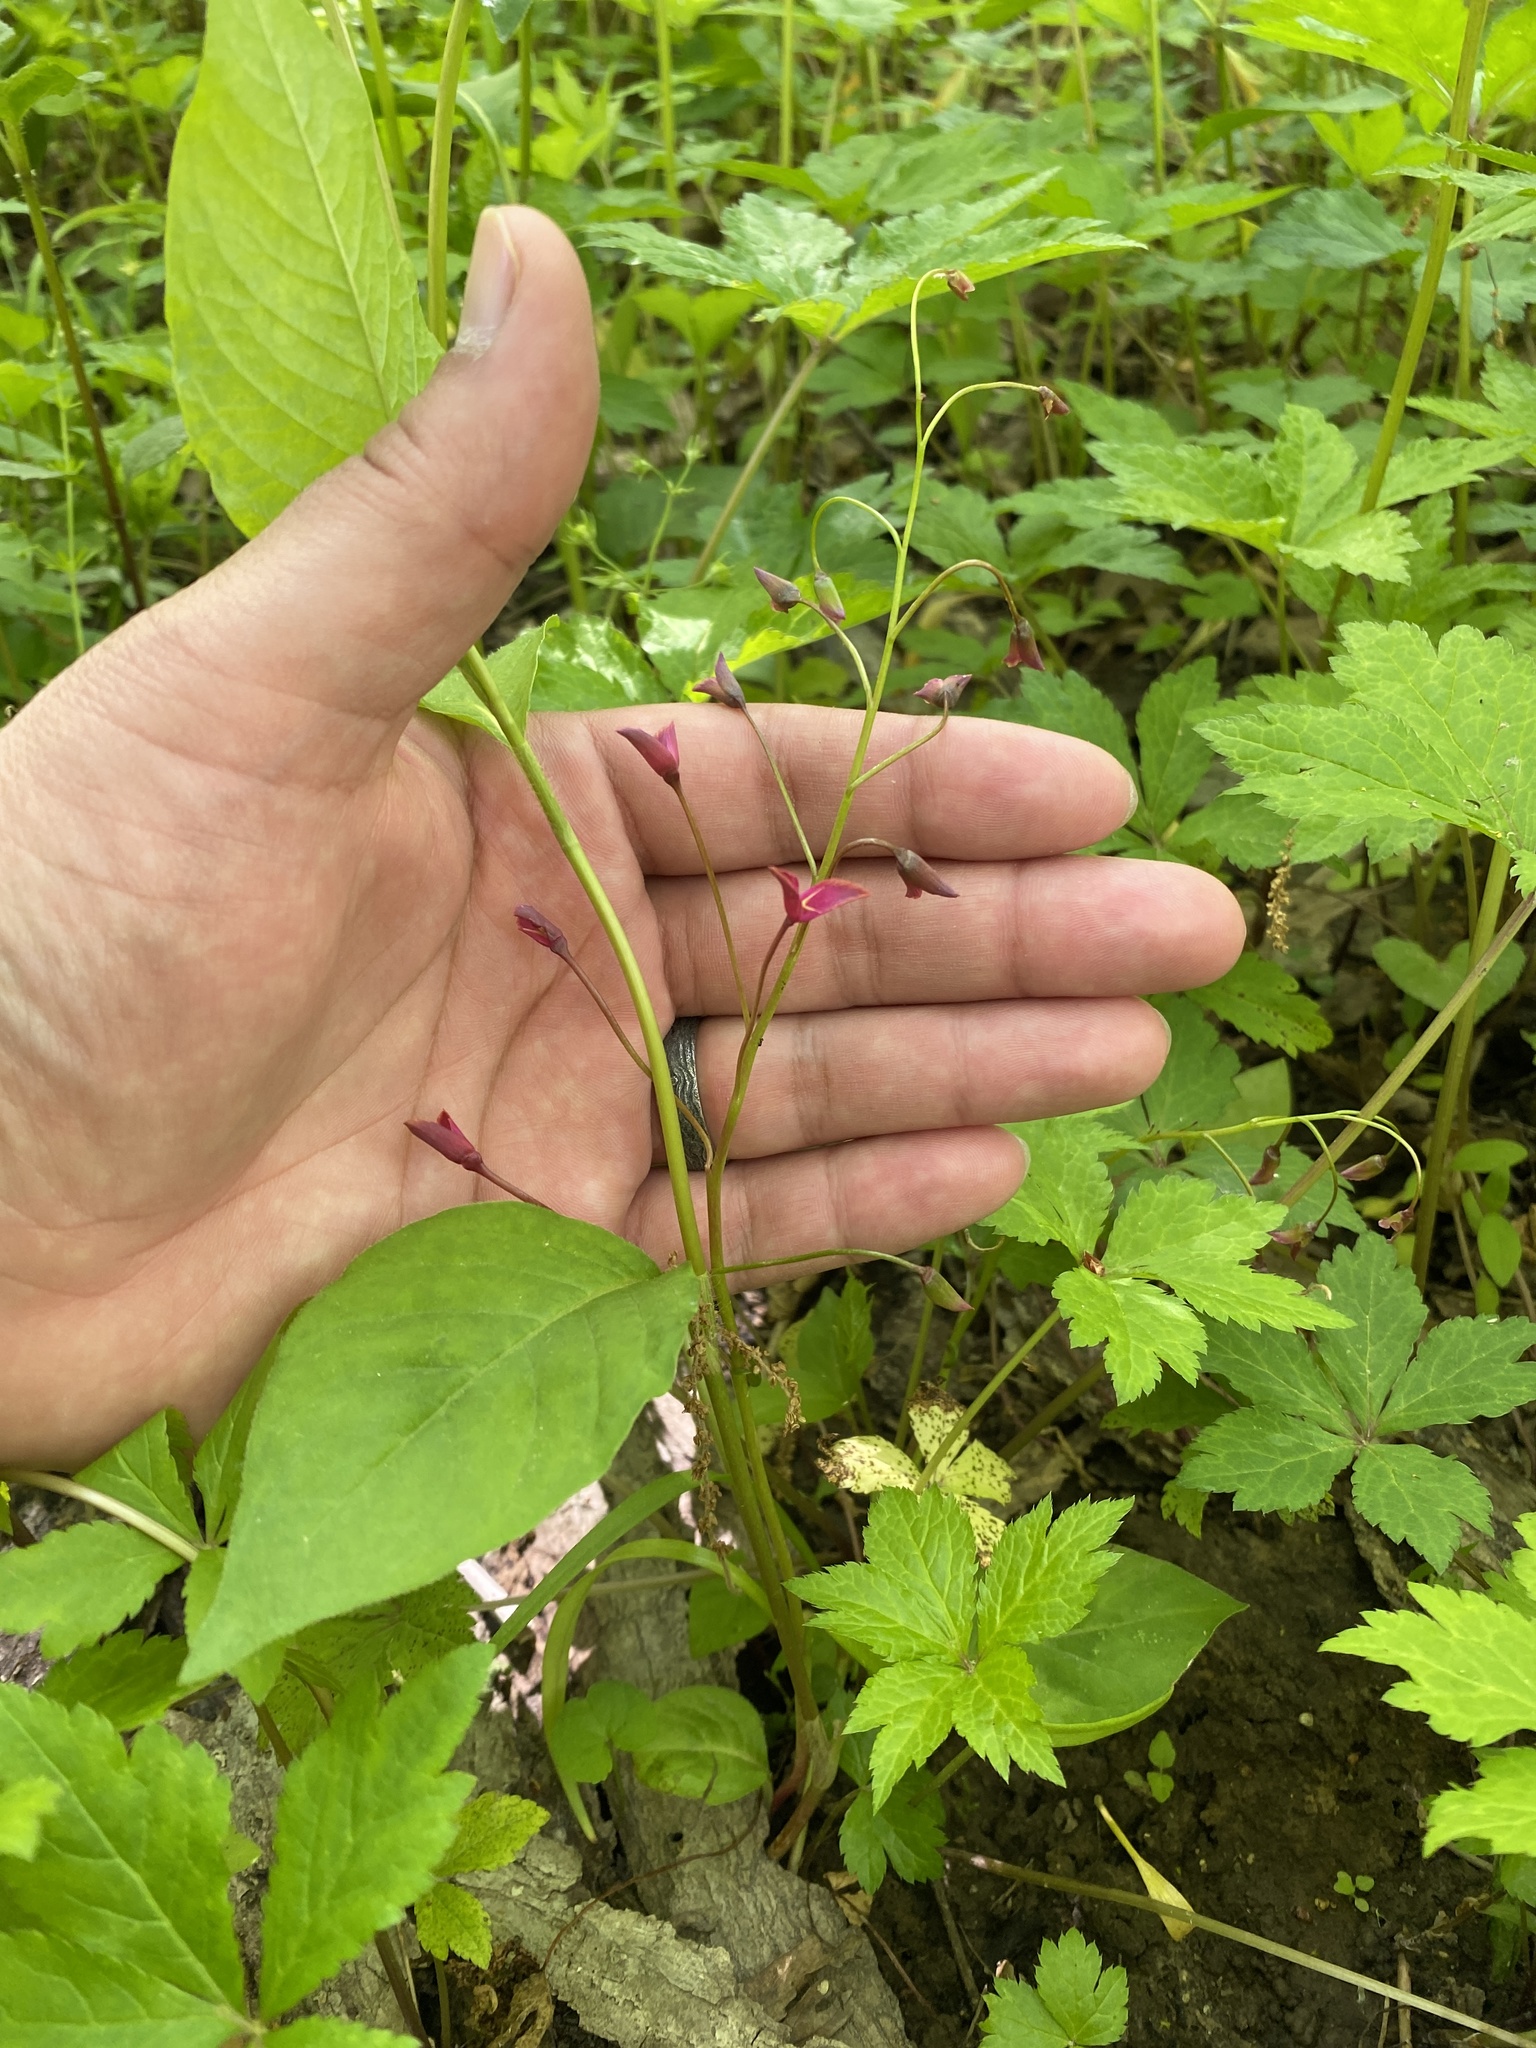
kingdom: Plantae
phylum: Tracheophyta
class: Magnoliopsida
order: Caryophyllales
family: Montiaceae
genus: Claytonia
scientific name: Claytonia virginica
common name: Virginia springbeauty
